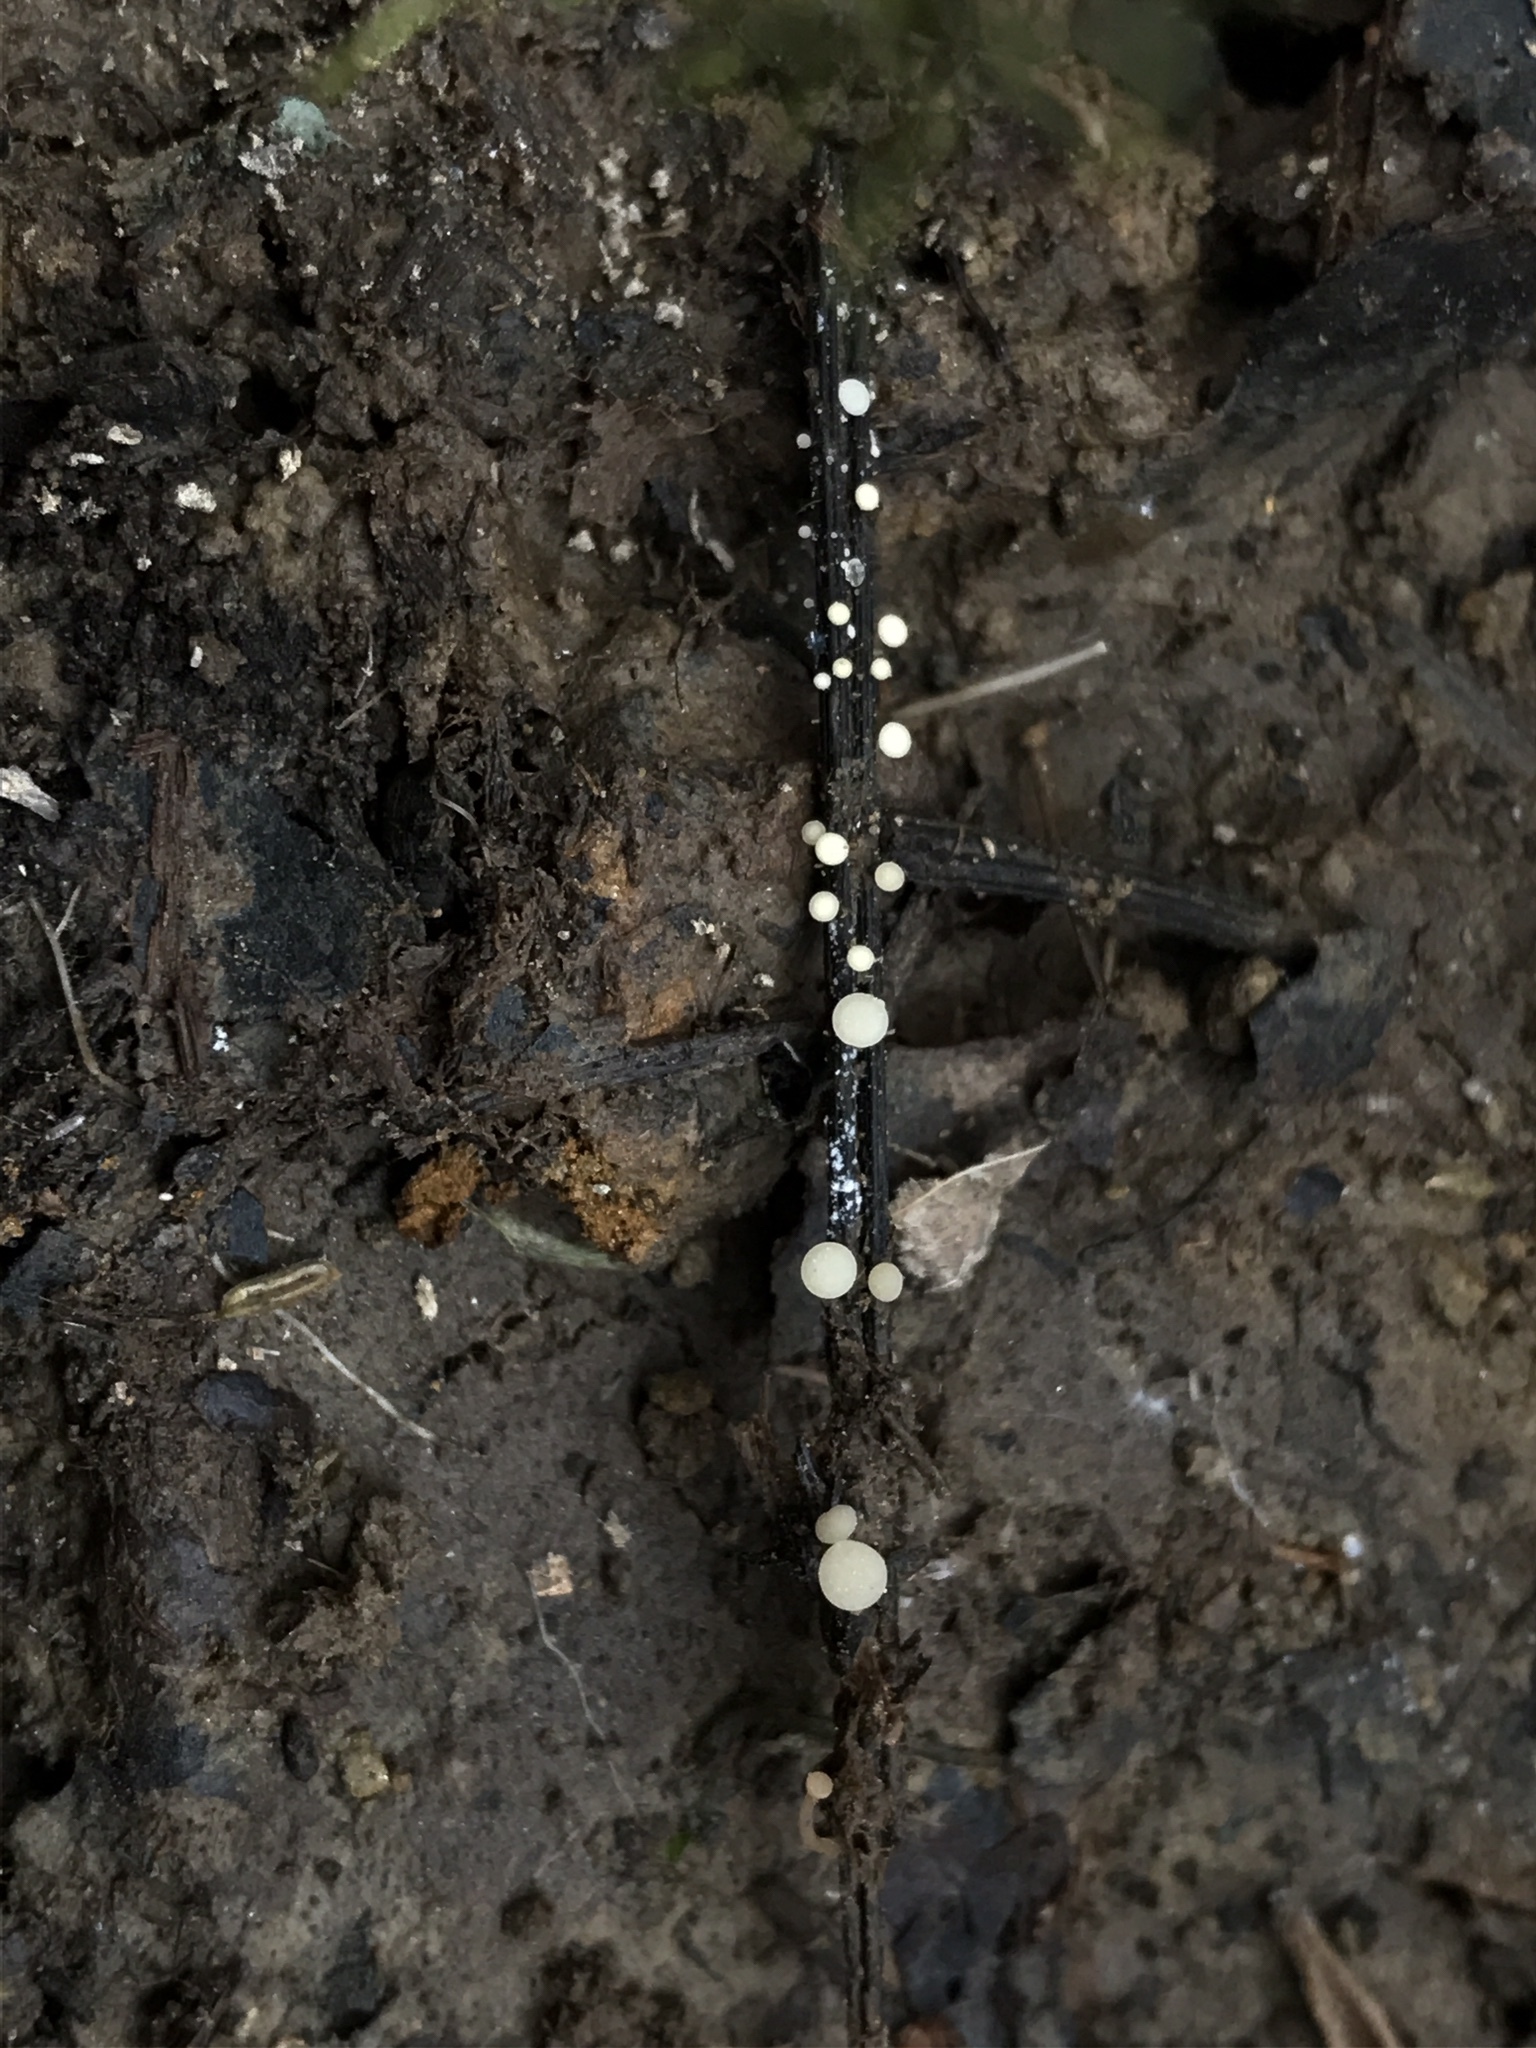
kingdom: Fungi
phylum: Ascomycota
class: Leotiomycetes
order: Helotiales
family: Tricladiaceae
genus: Tricladium
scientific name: Tricladium varicosporioides
